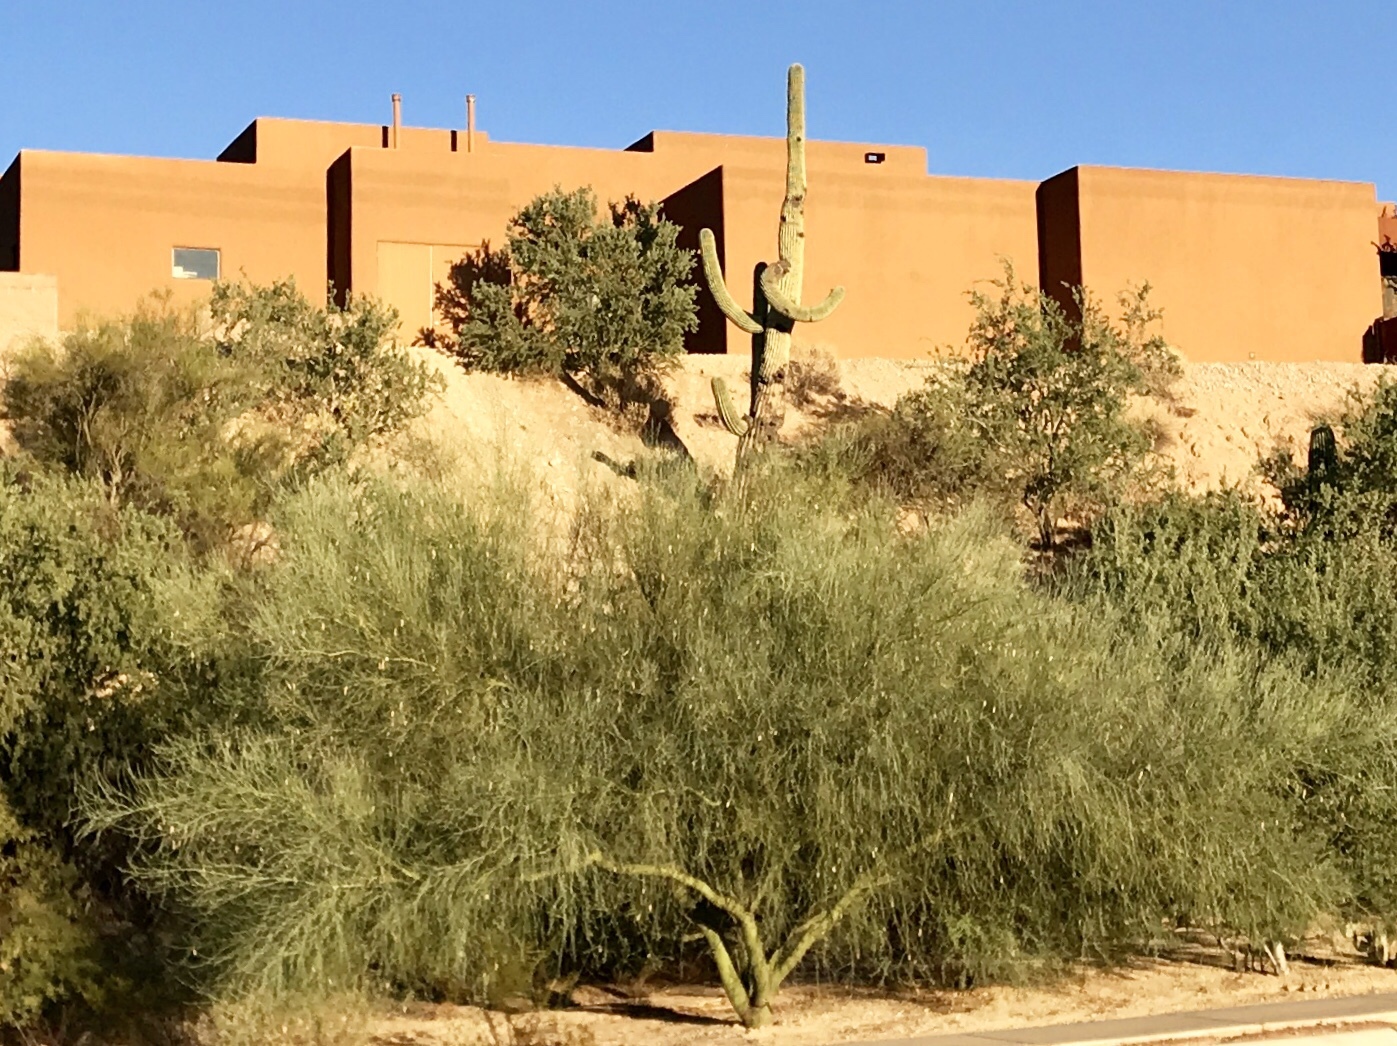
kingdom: Plantae
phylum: Tracheophyta
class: Magnoliopsida
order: Fabales
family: Fabaceae
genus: Parkinsonia
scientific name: Parkinsonia florida
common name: Blue paloverde
